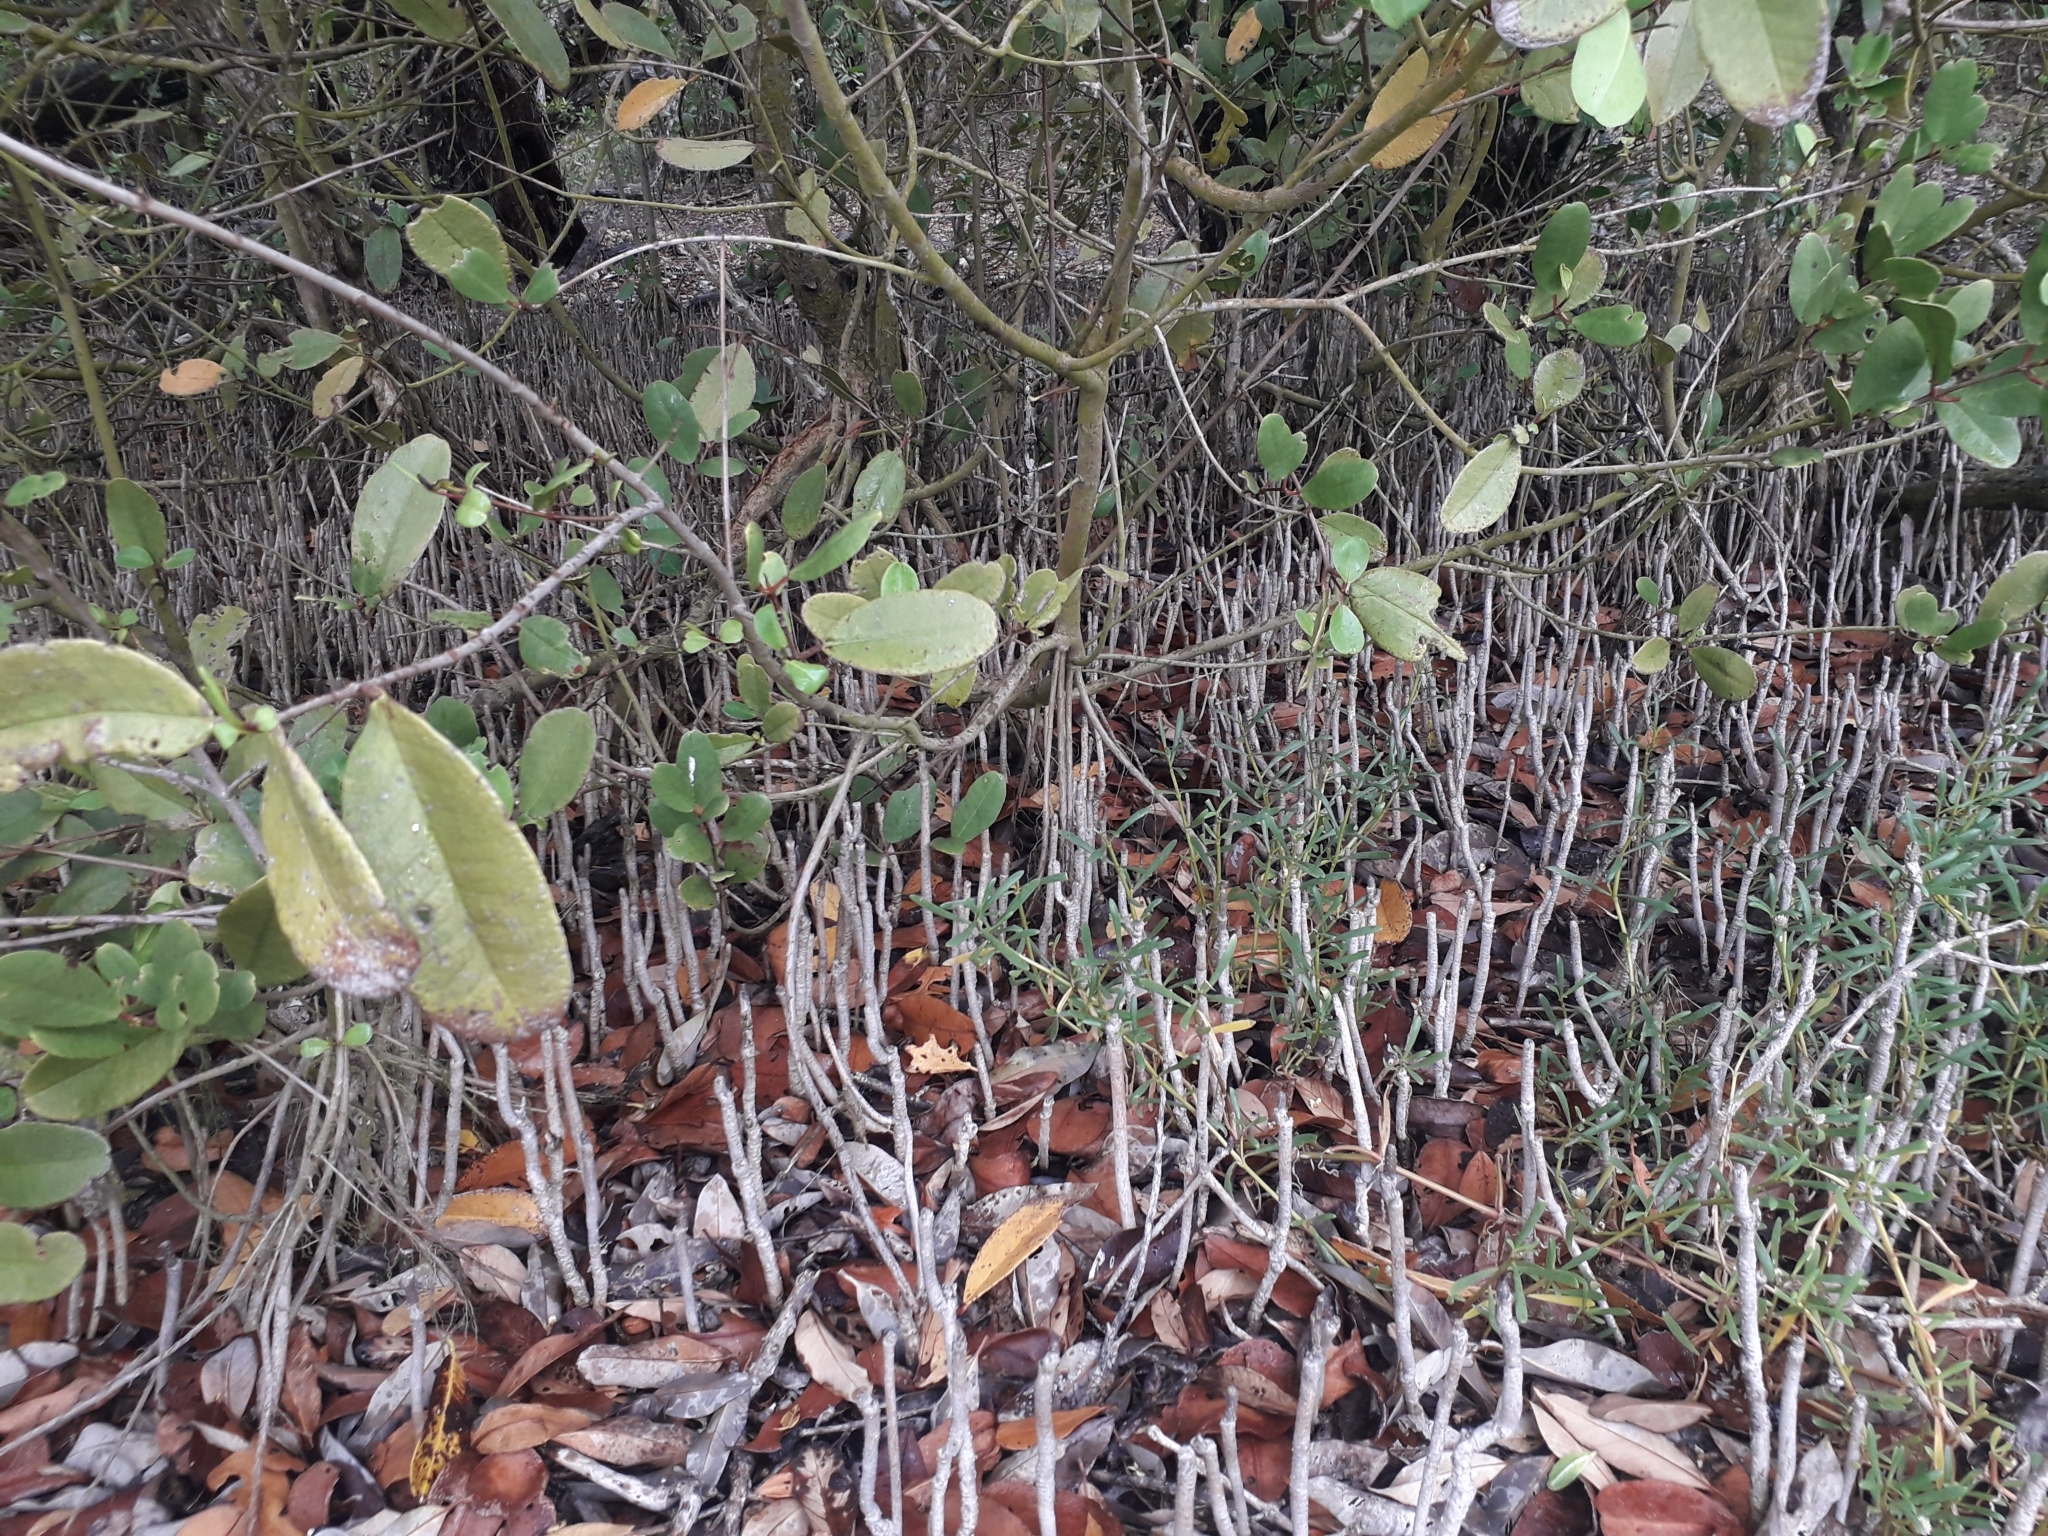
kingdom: Plantae
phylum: Tracheophyta
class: Magnoliopsida
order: Lamiales
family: Acanthaceae
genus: Avicennia
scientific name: Avicennia germinans
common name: Black mangrove
